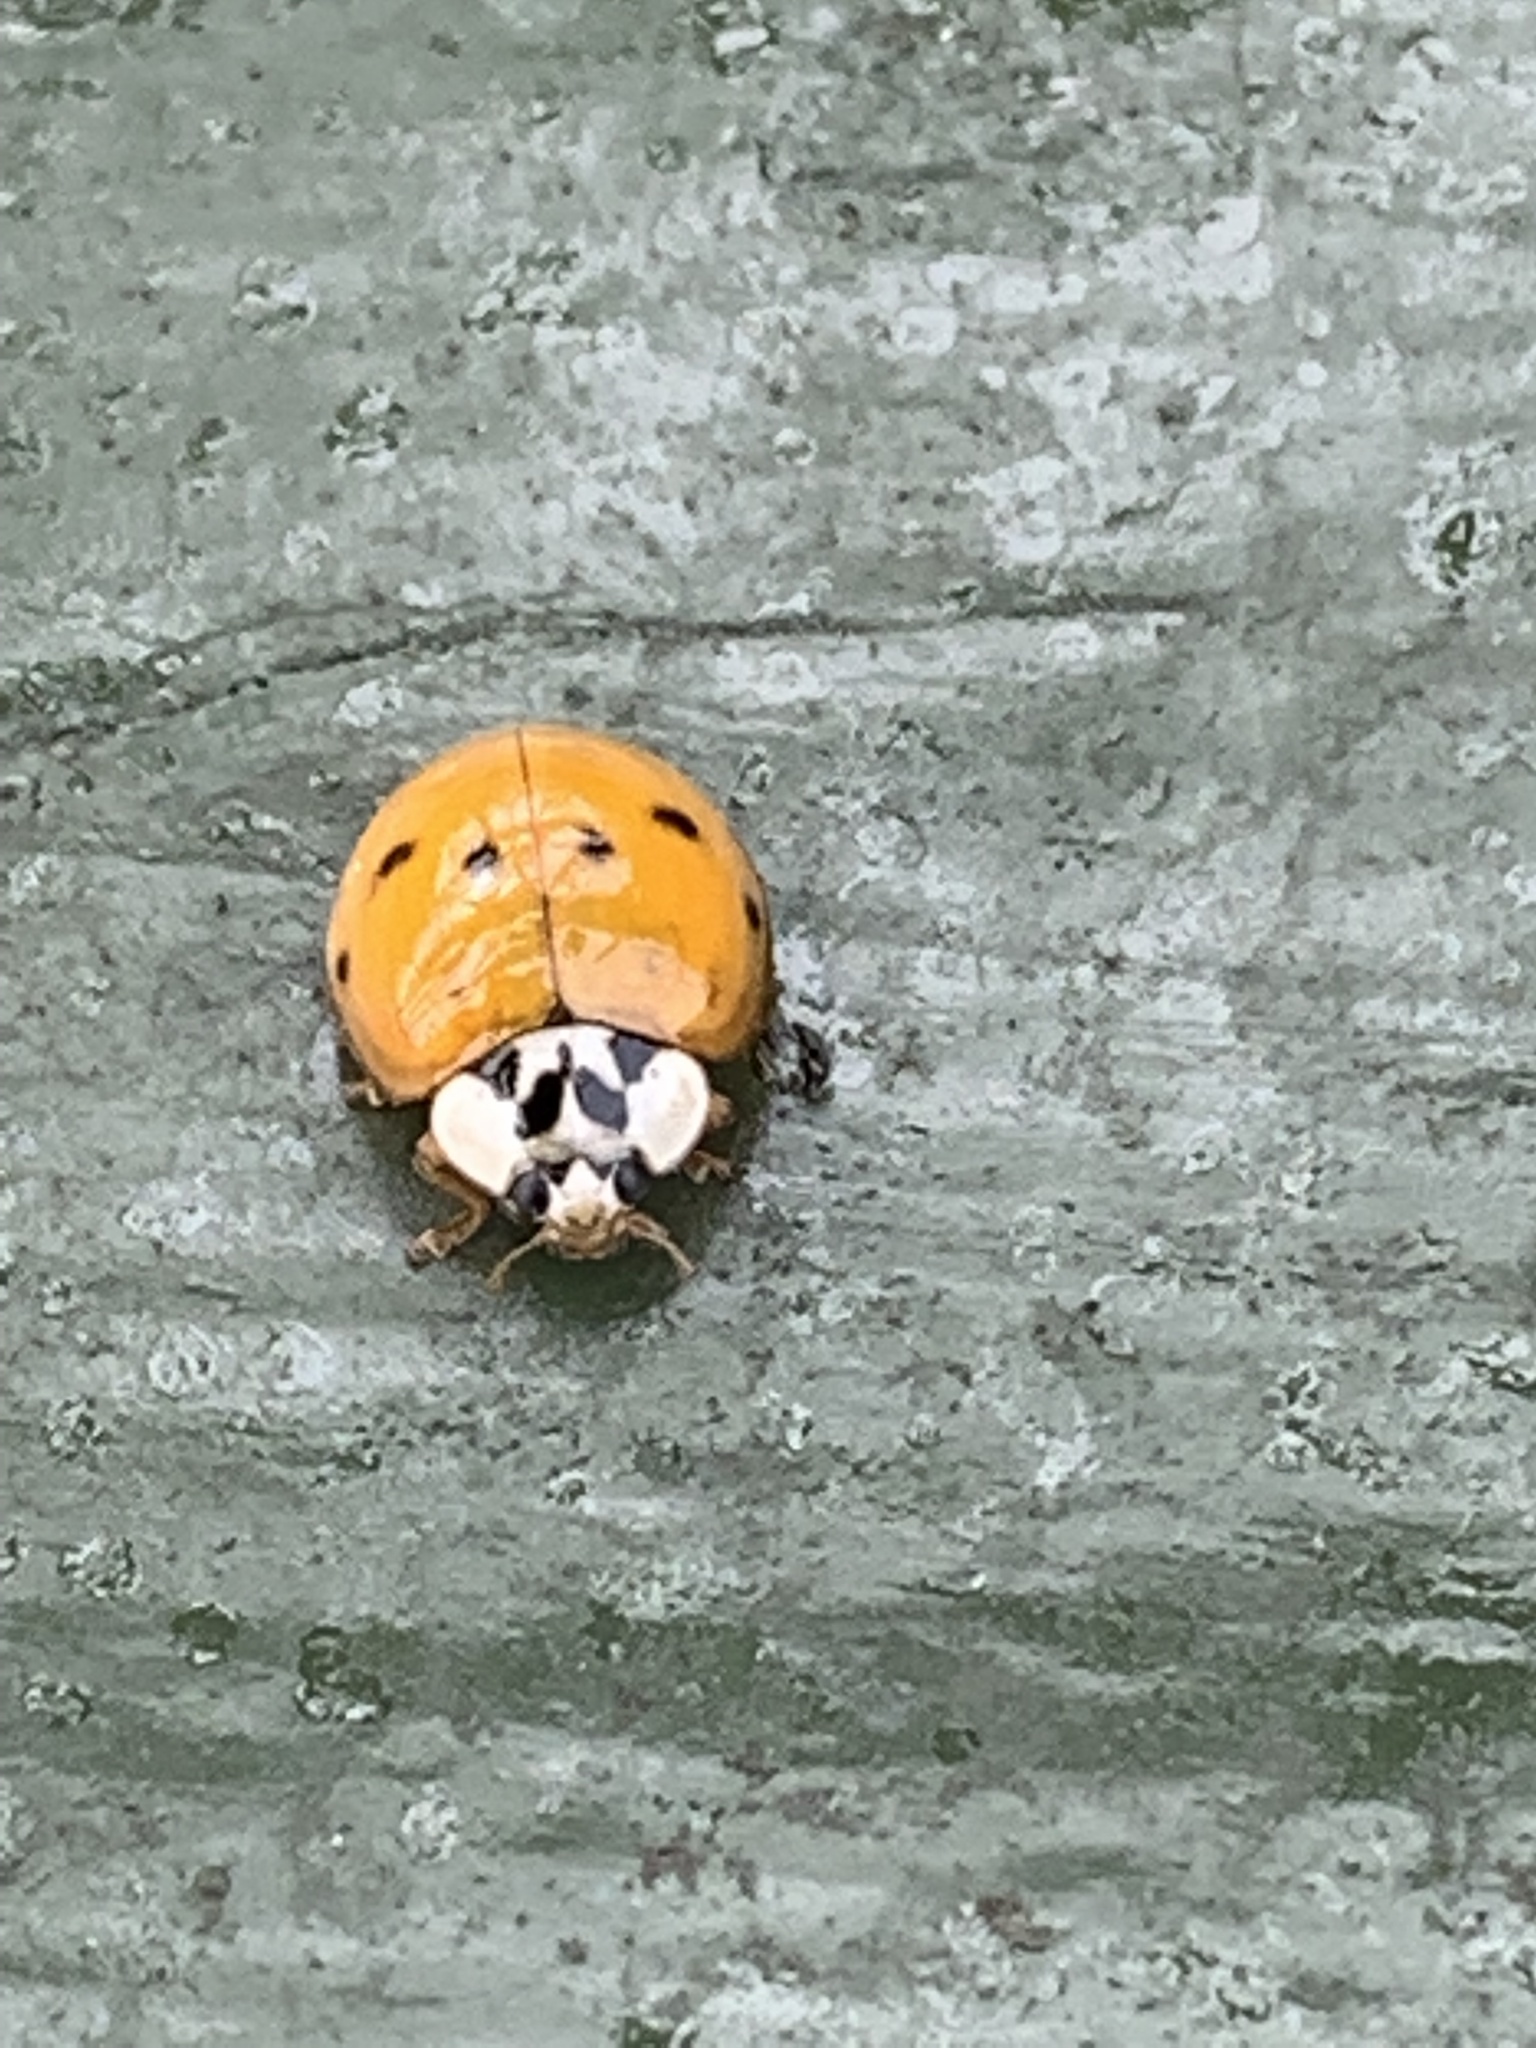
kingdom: Animalia
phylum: Arthropoda
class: Insecta
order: Coleoptera
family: Coccinellidae
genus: Harmonia
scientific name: Harmonia axyridis
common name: Harlequin ladybird
